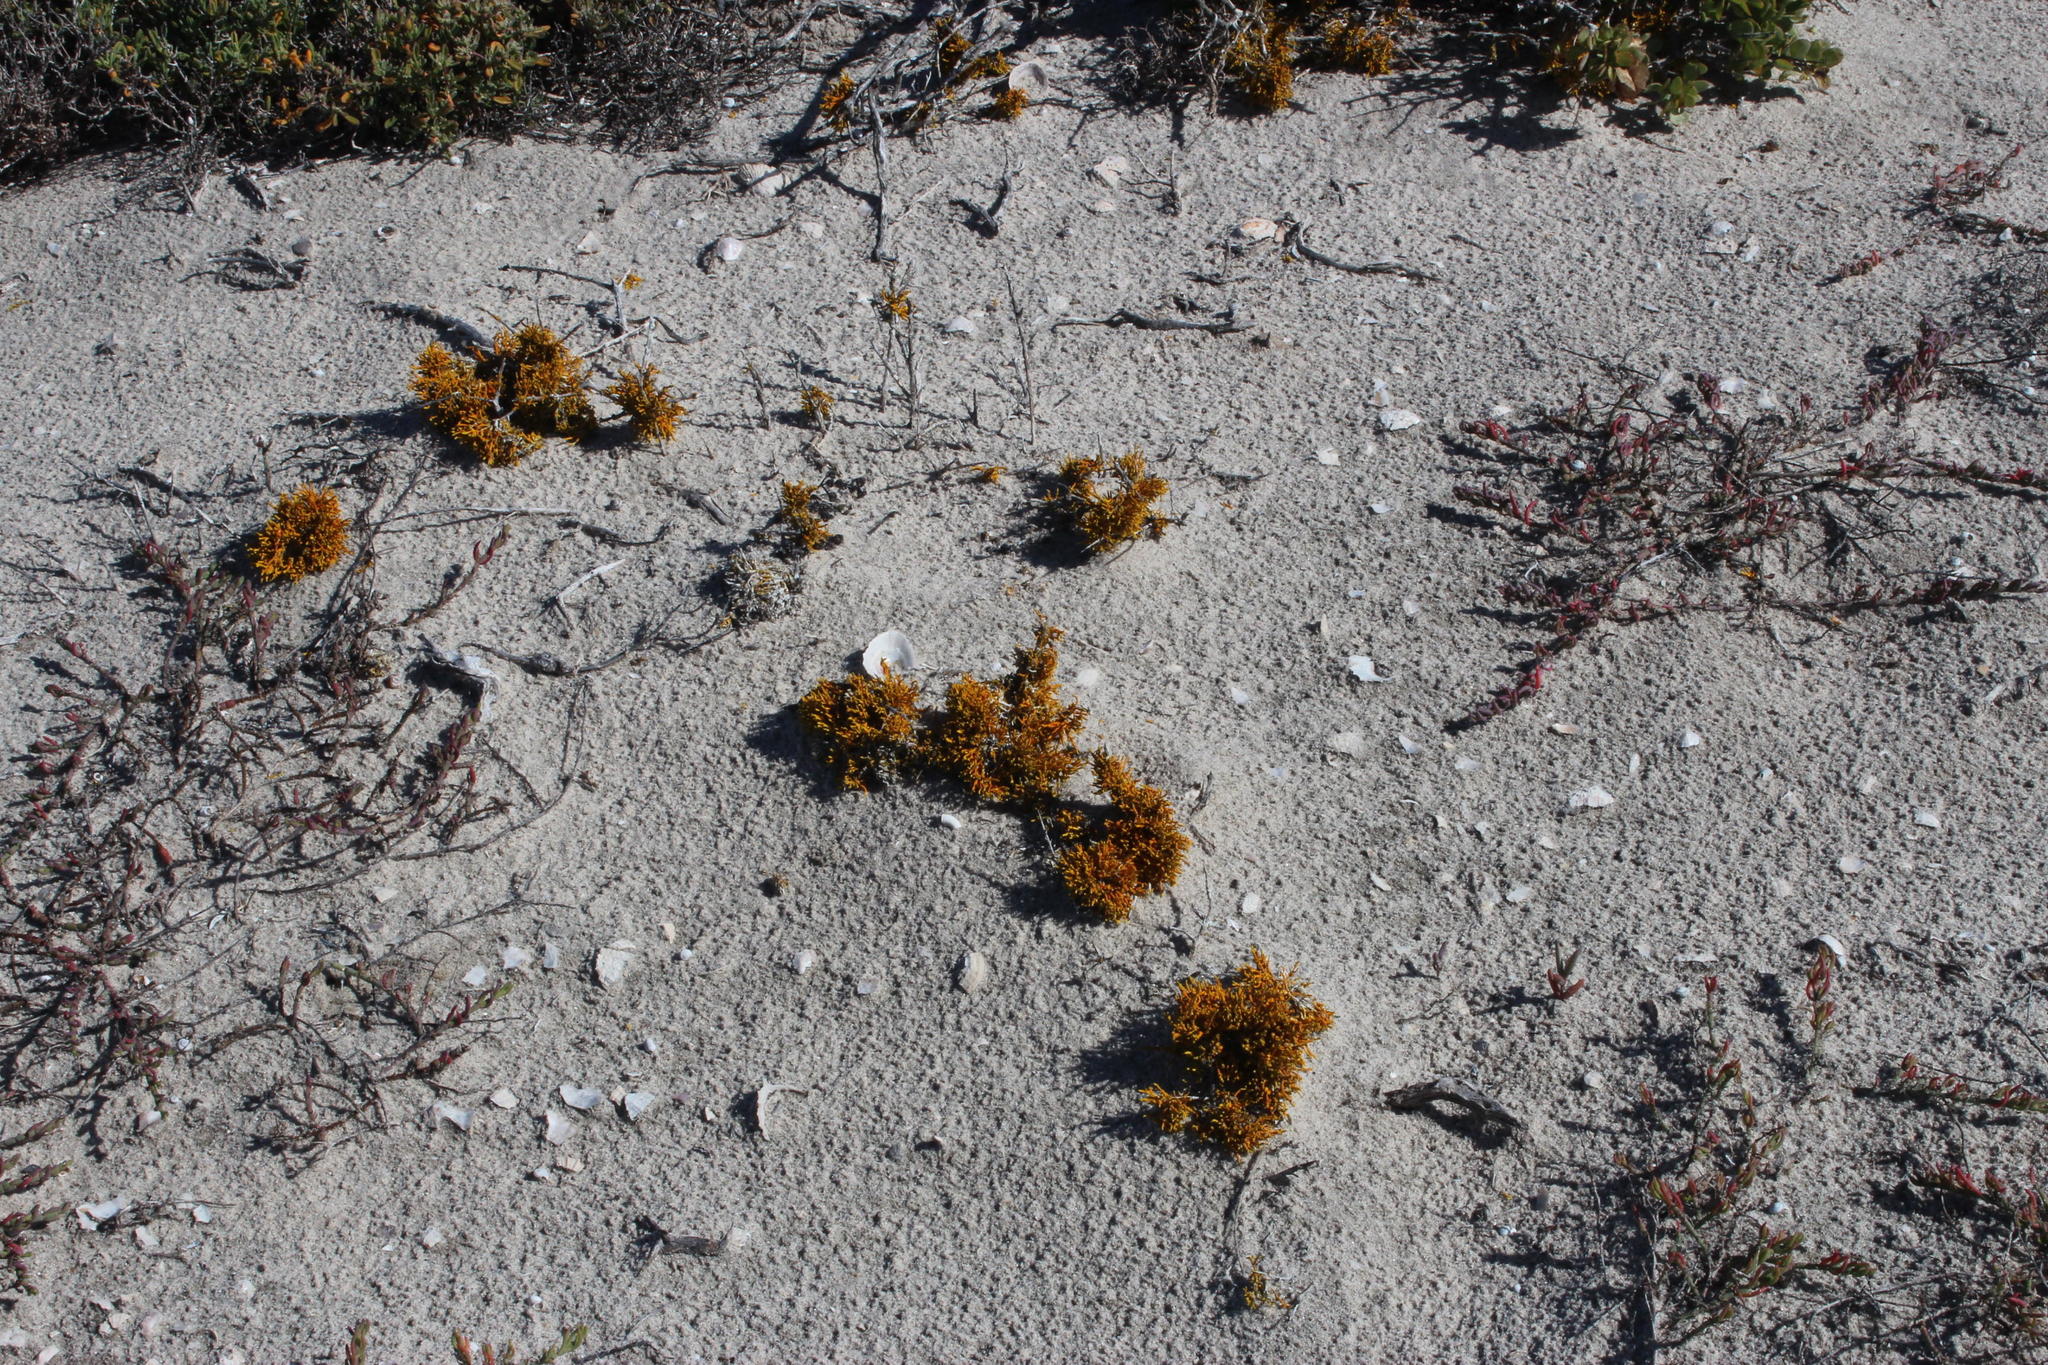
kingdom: Fungi
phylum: Ascomycota
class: Lecanoromycetes
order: Teloschistales
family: Teloschistaceae
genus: Dufourea
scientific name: Dufourea flammea
